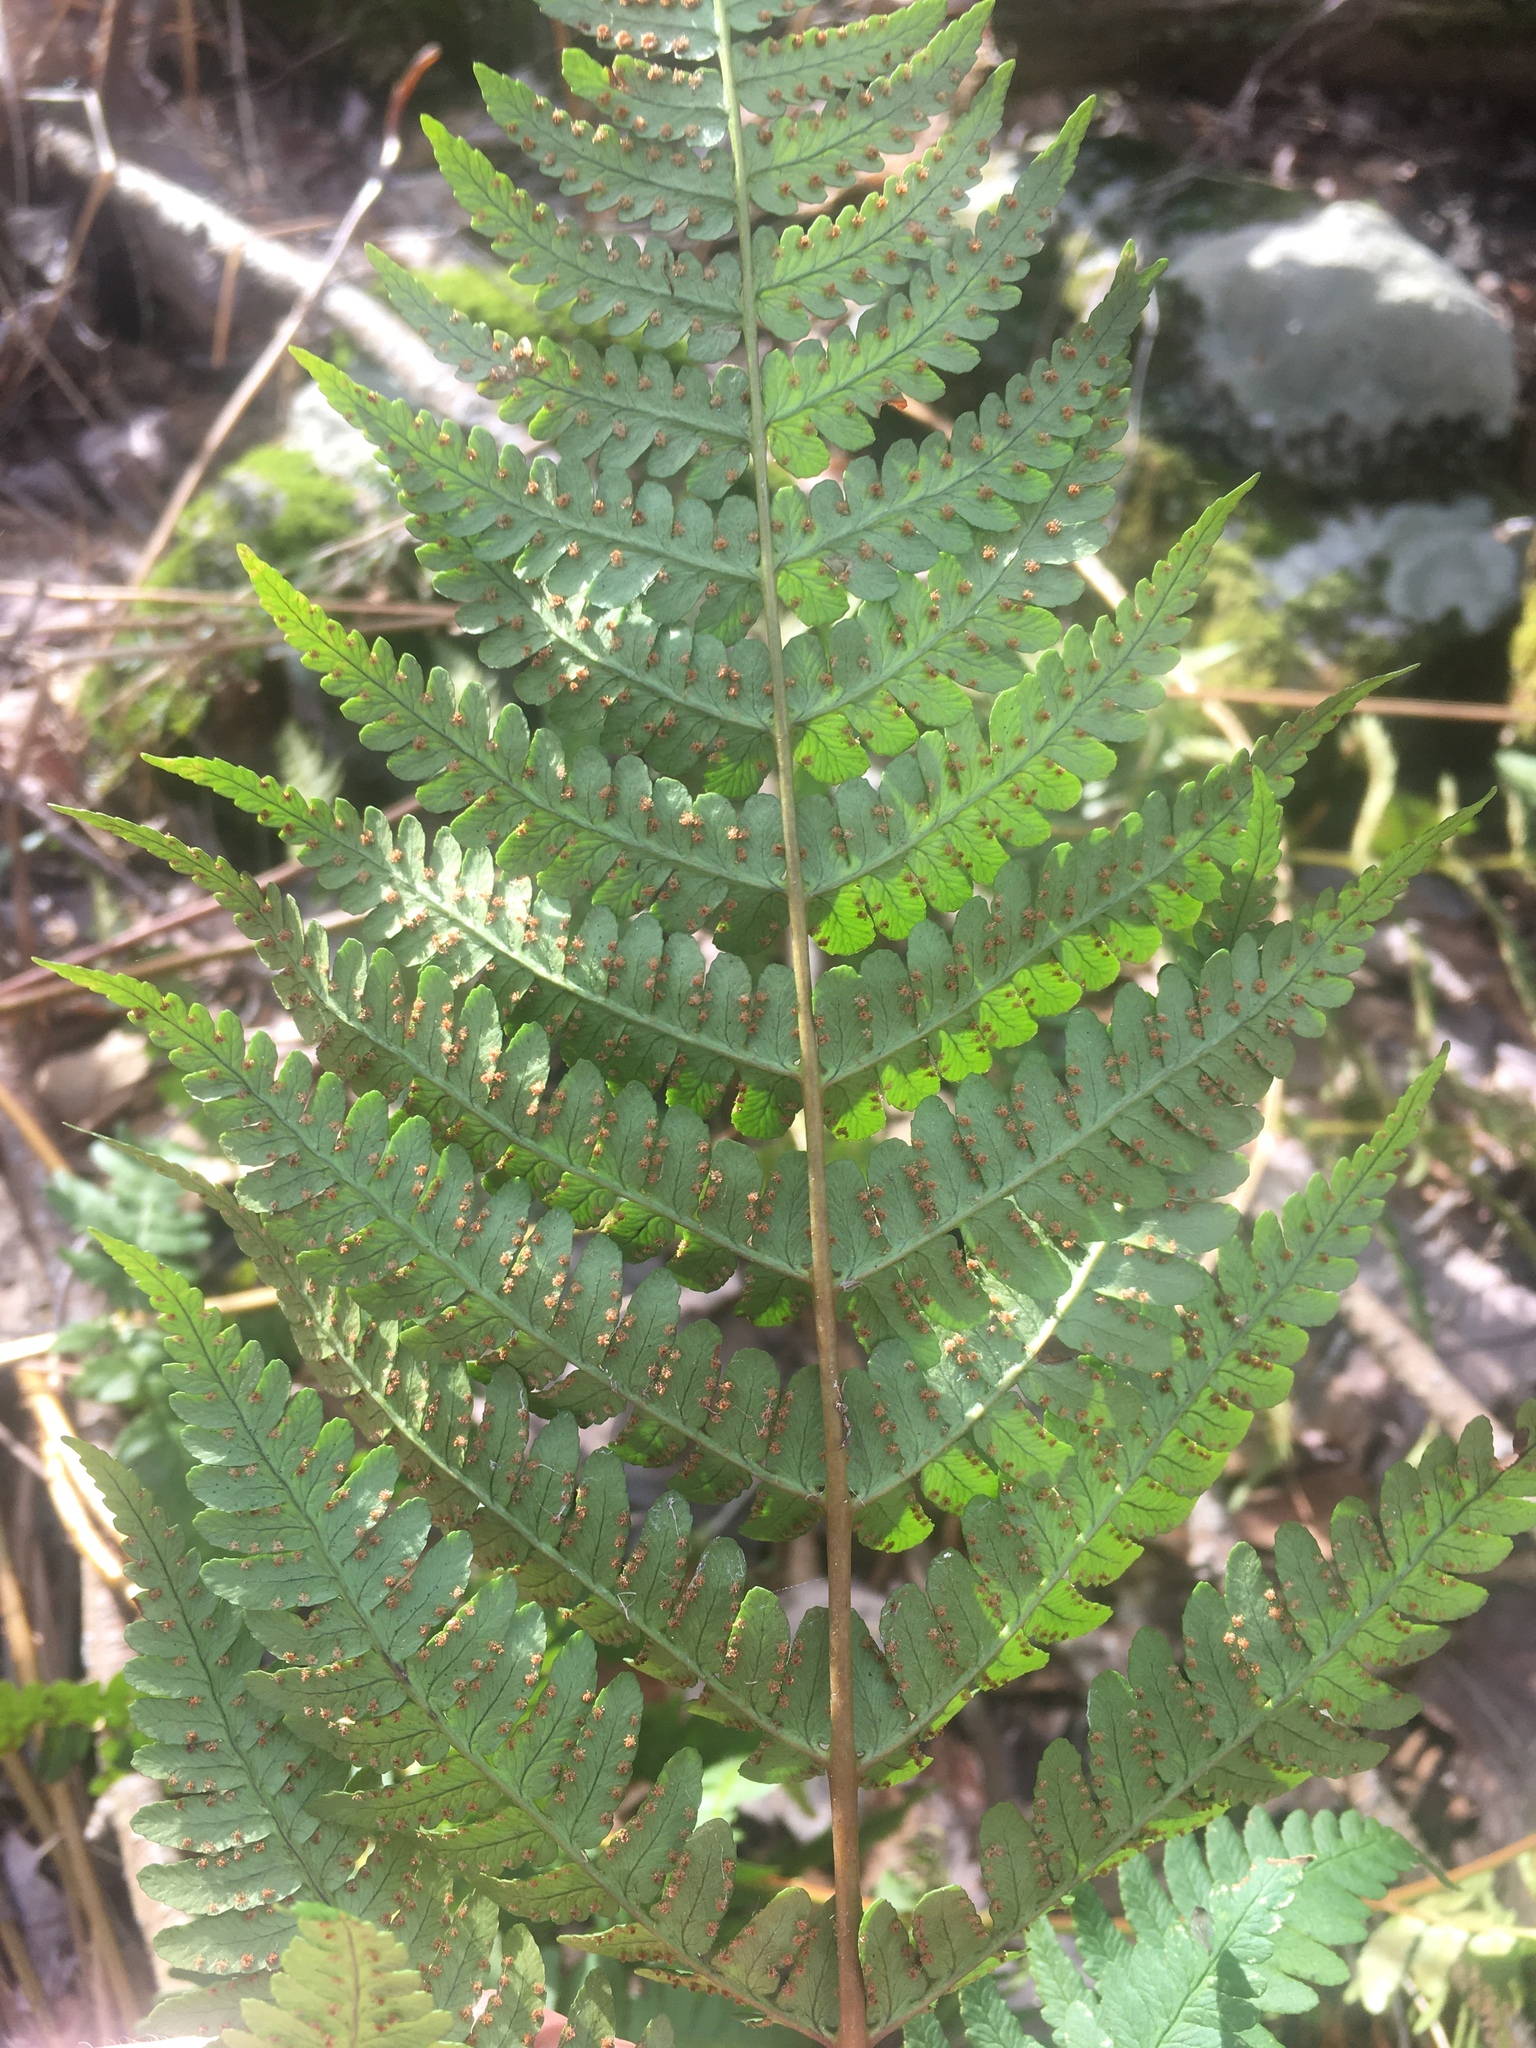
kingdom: Plantae
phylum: Tracheophyta
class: Polypodiopsida
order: Polypodiales
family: Dryopteridaceae
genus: Dryopteris
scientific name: Dryopteris marginalis
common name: Marginal wood fern
